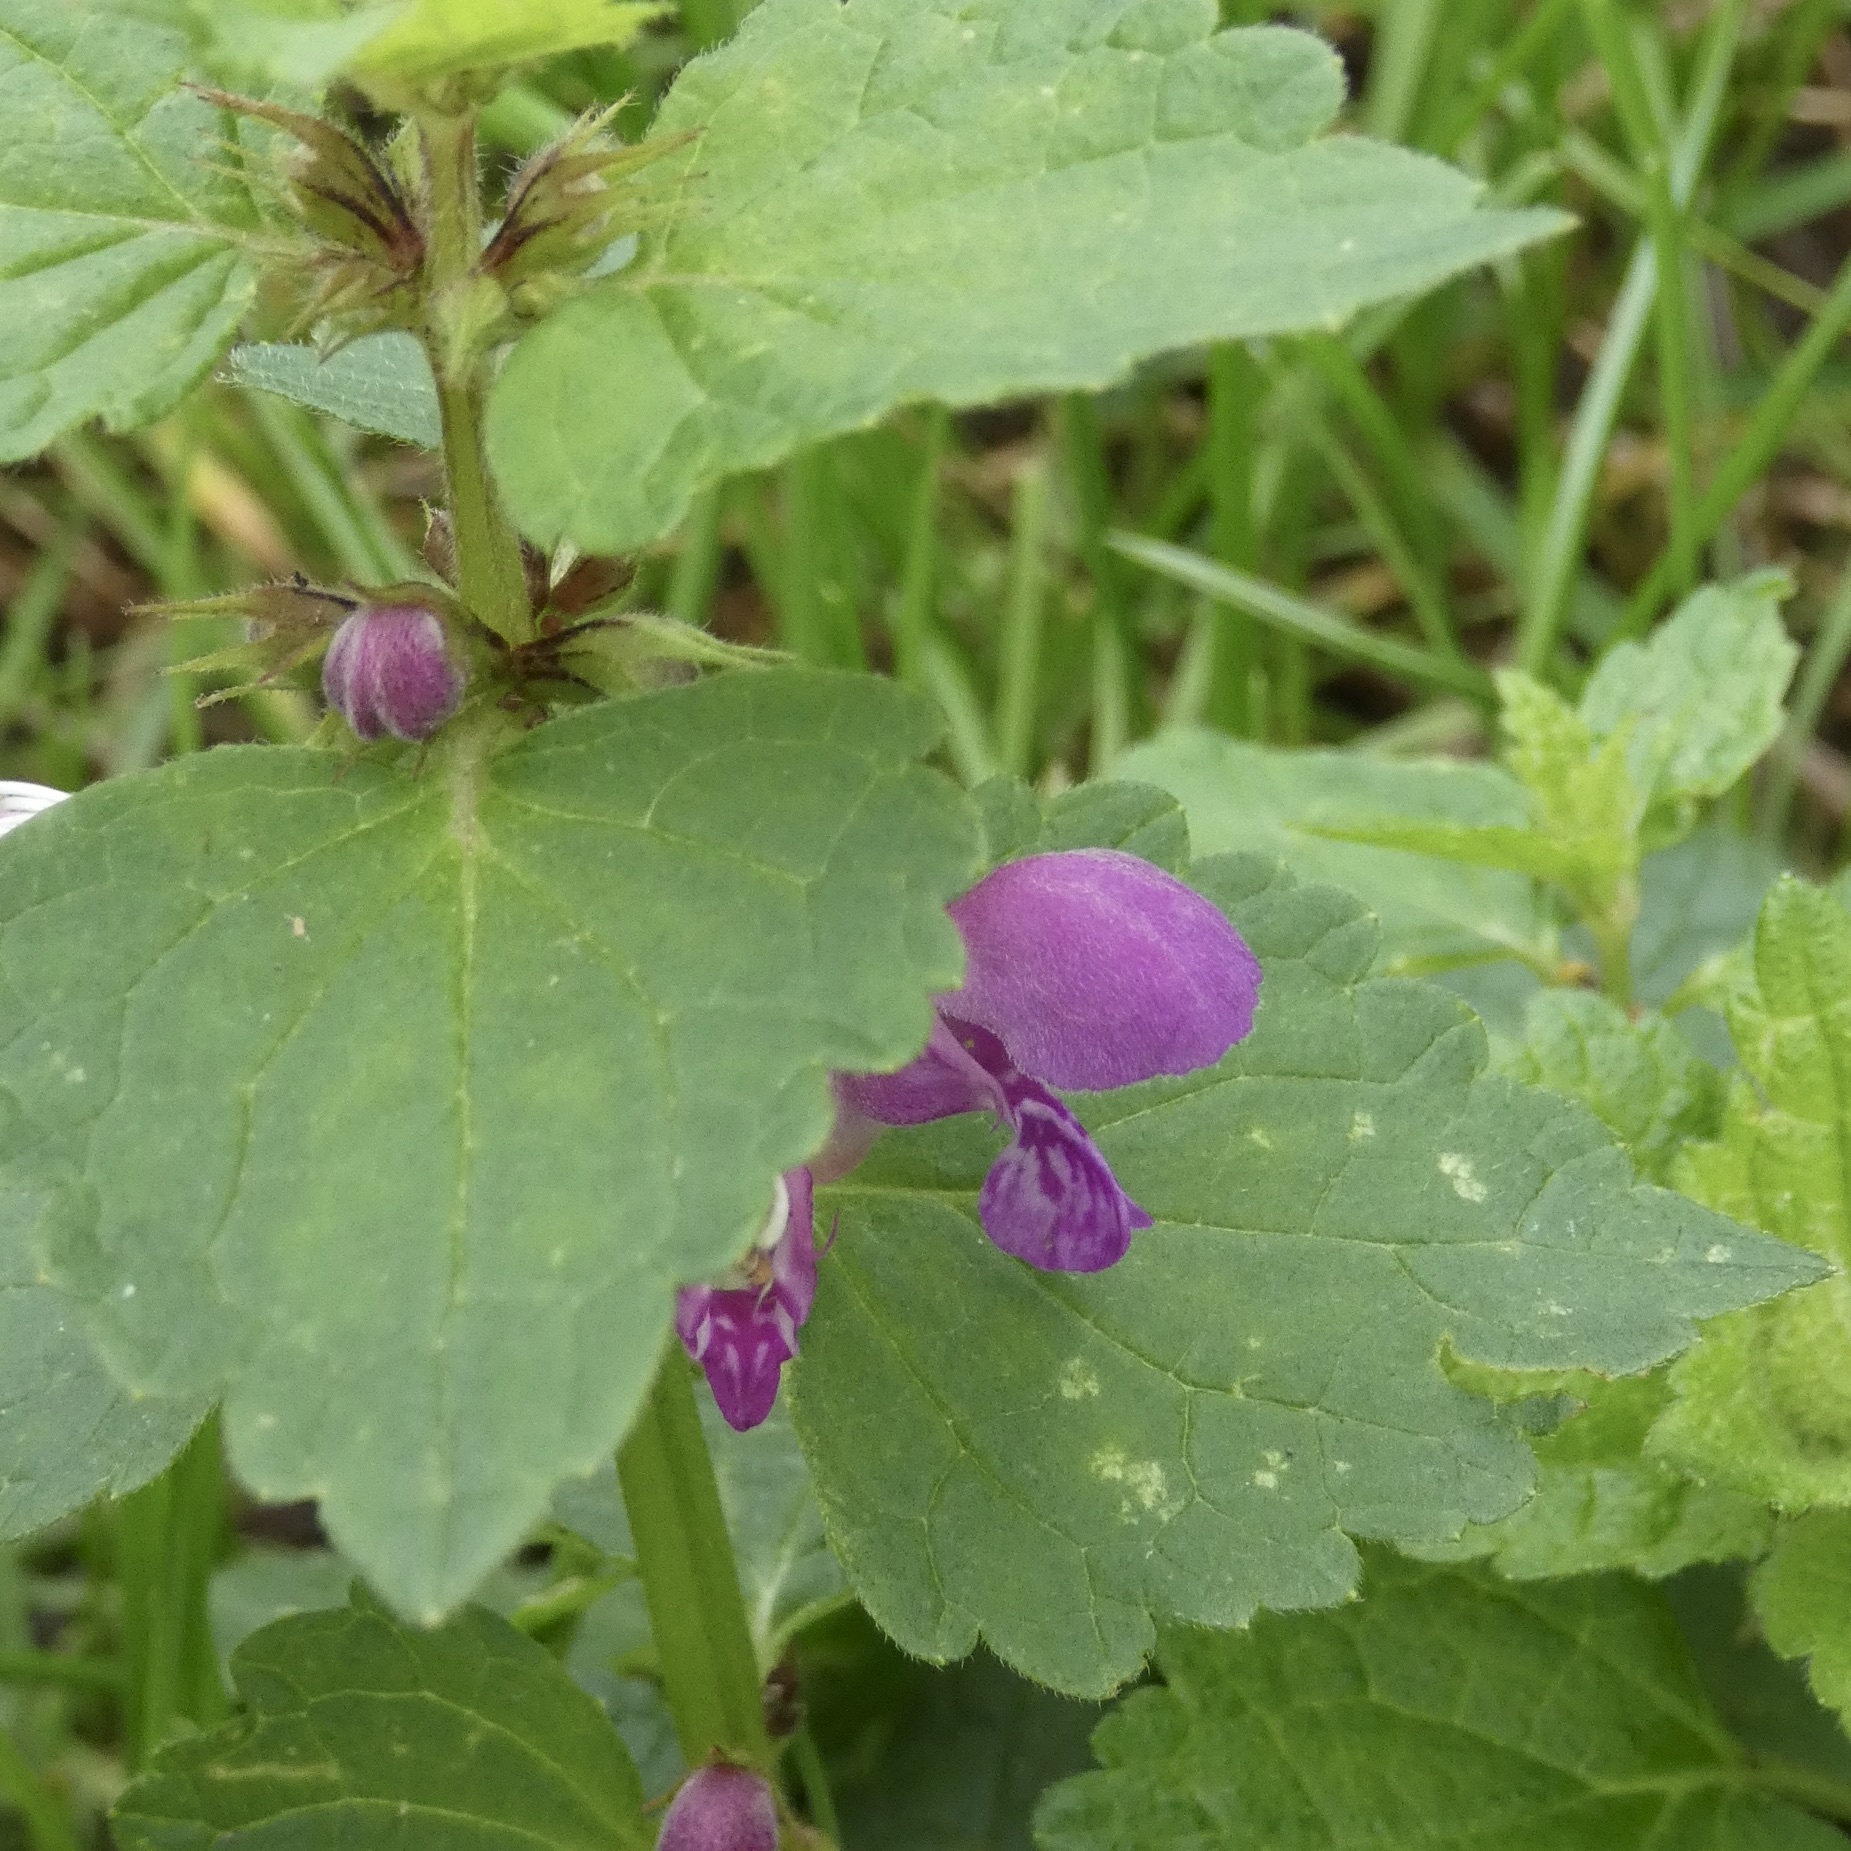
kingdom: Plantae
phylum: Tracheophyta
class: Magnoliopsida
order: Lamiales
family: Lamiaceae
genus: Lamium
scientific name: Lamium maculatum
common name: Spotted dead-nettle
